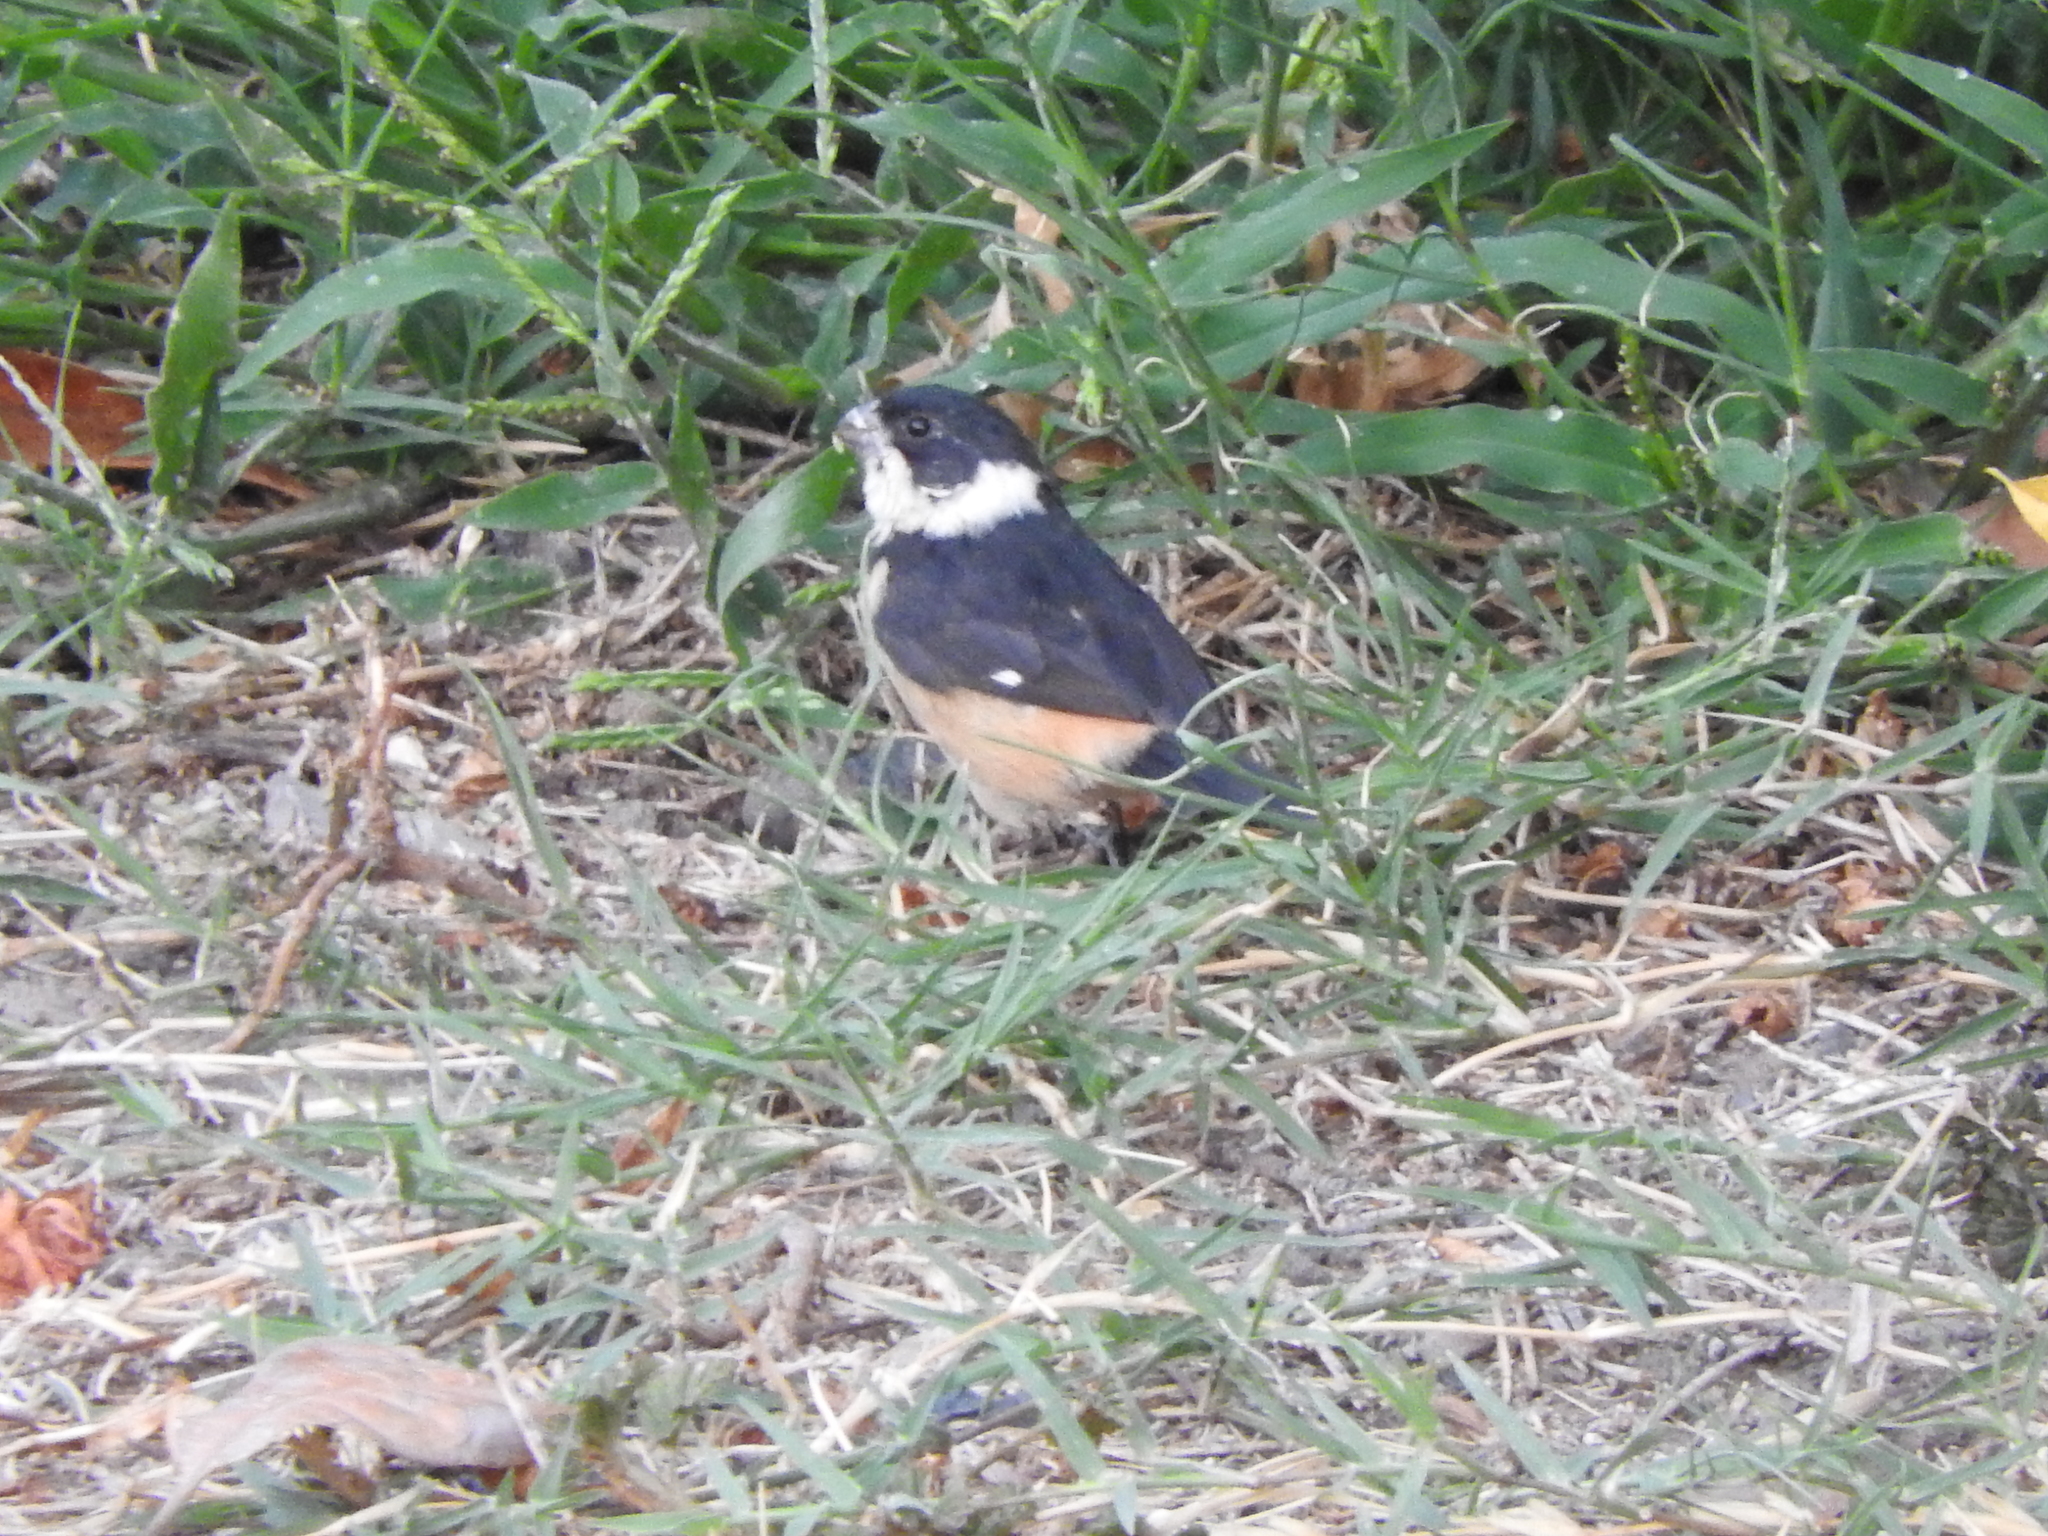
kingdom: Animalia
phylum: Chordata
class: Aves
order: Passeriformes
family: Thraupidae
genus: Sporophila
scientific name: Sporophila torqueola
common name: White-collared seedeater
